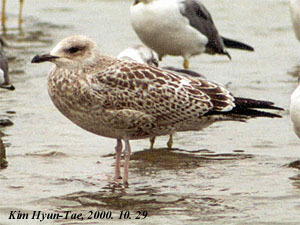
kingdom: Animalia
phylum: Chordata
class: Aves
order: Charadriiformes
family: Laridae
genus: Larus
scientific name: Larus fuscus
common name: Lesser black-backed gull
